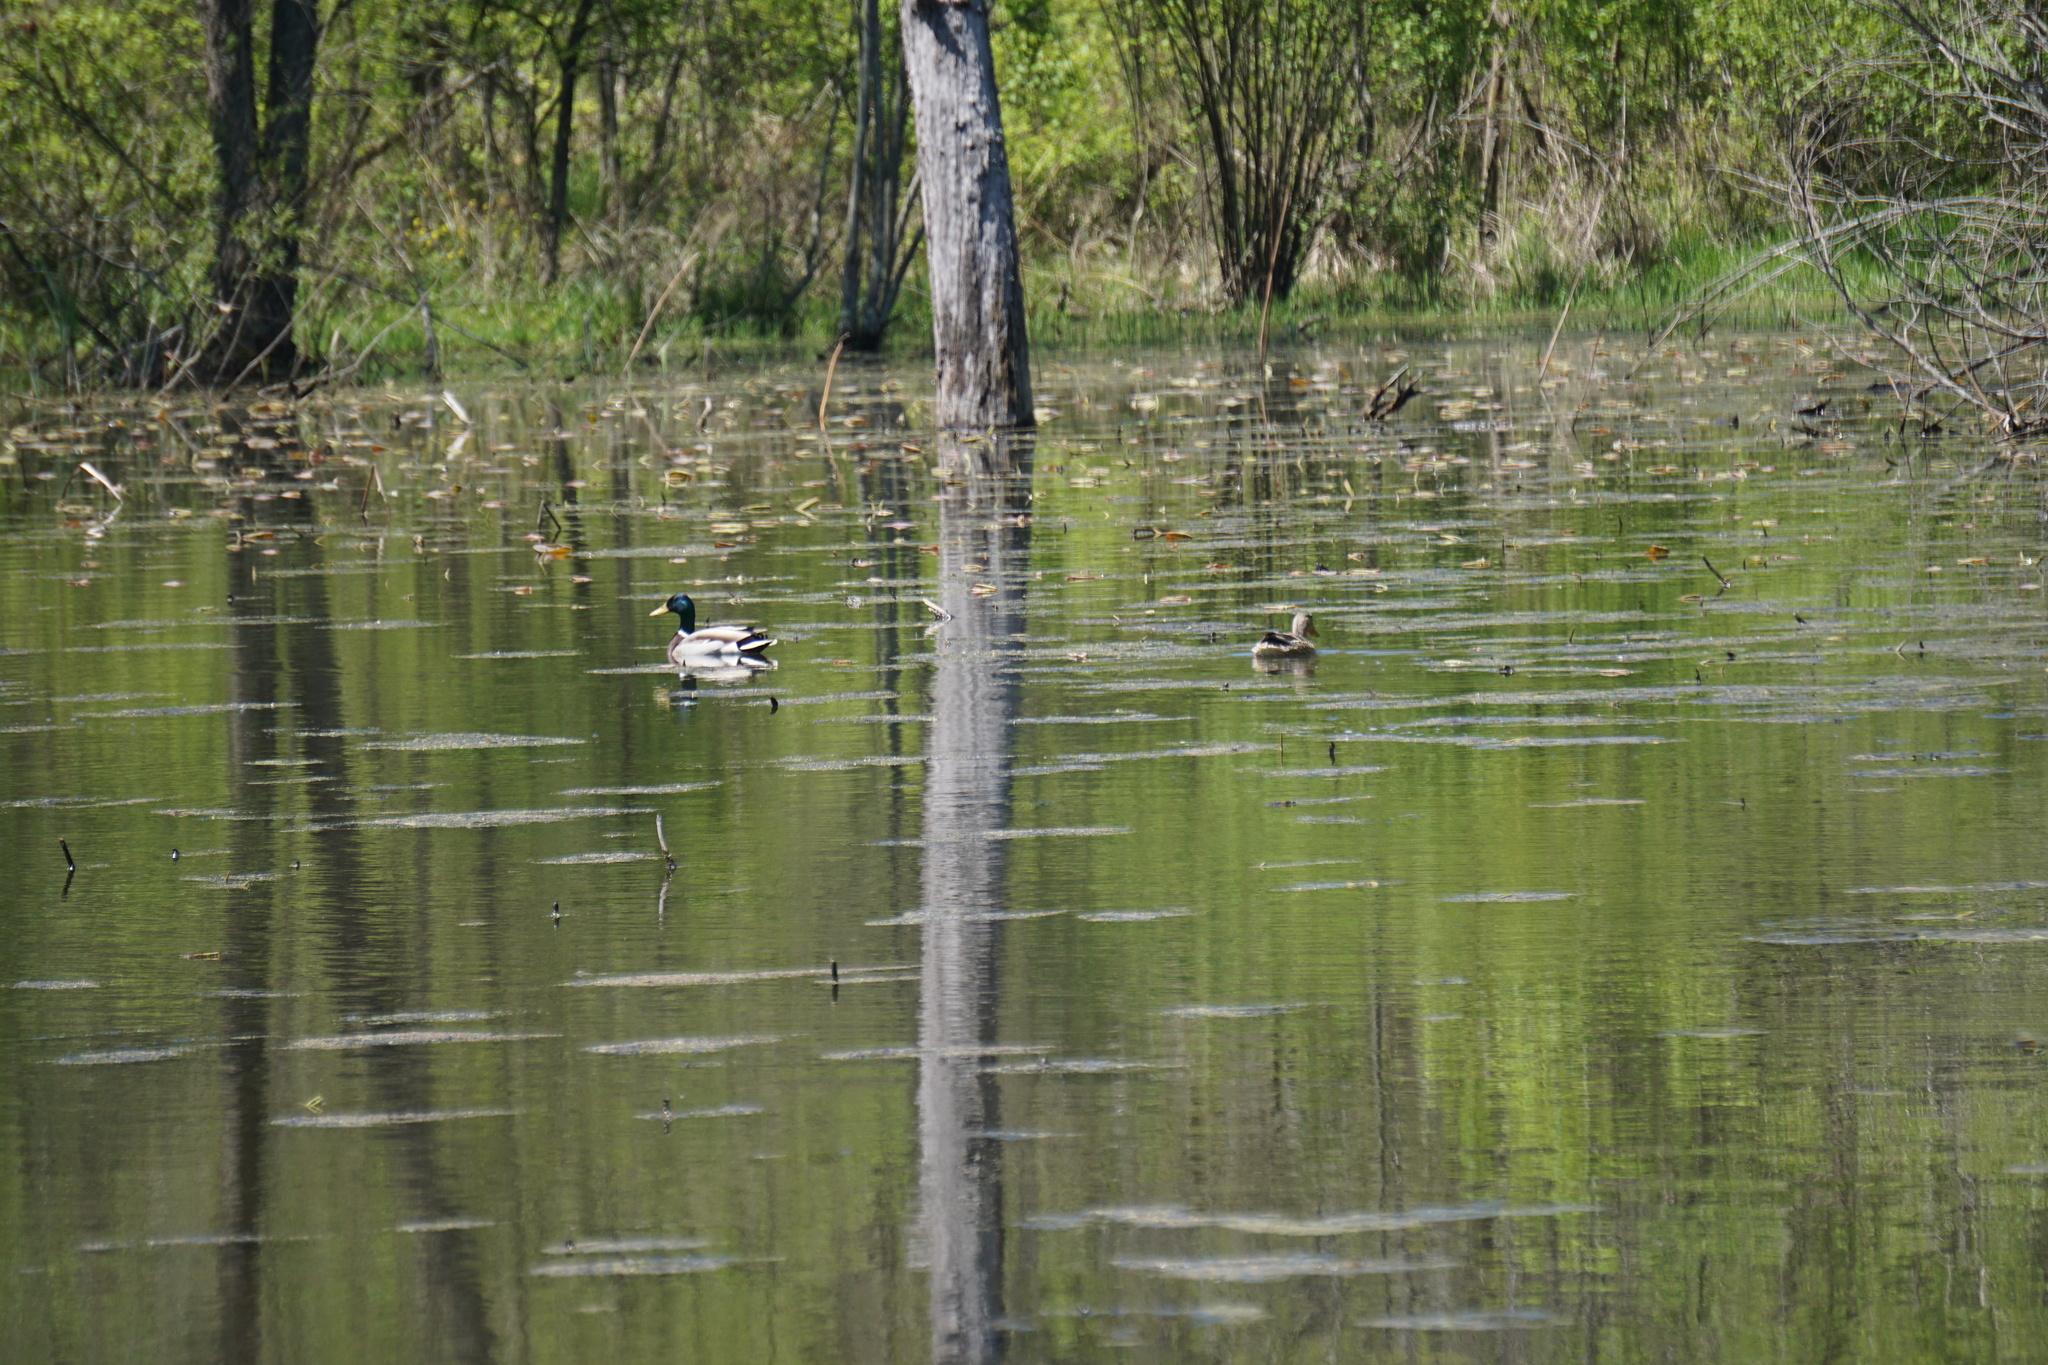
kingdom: Animalia
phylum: Chordata
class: Aves
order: Anseriformes
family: Anatidae
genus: Anas
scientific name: Anas platyrhynchos
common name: Mallard
